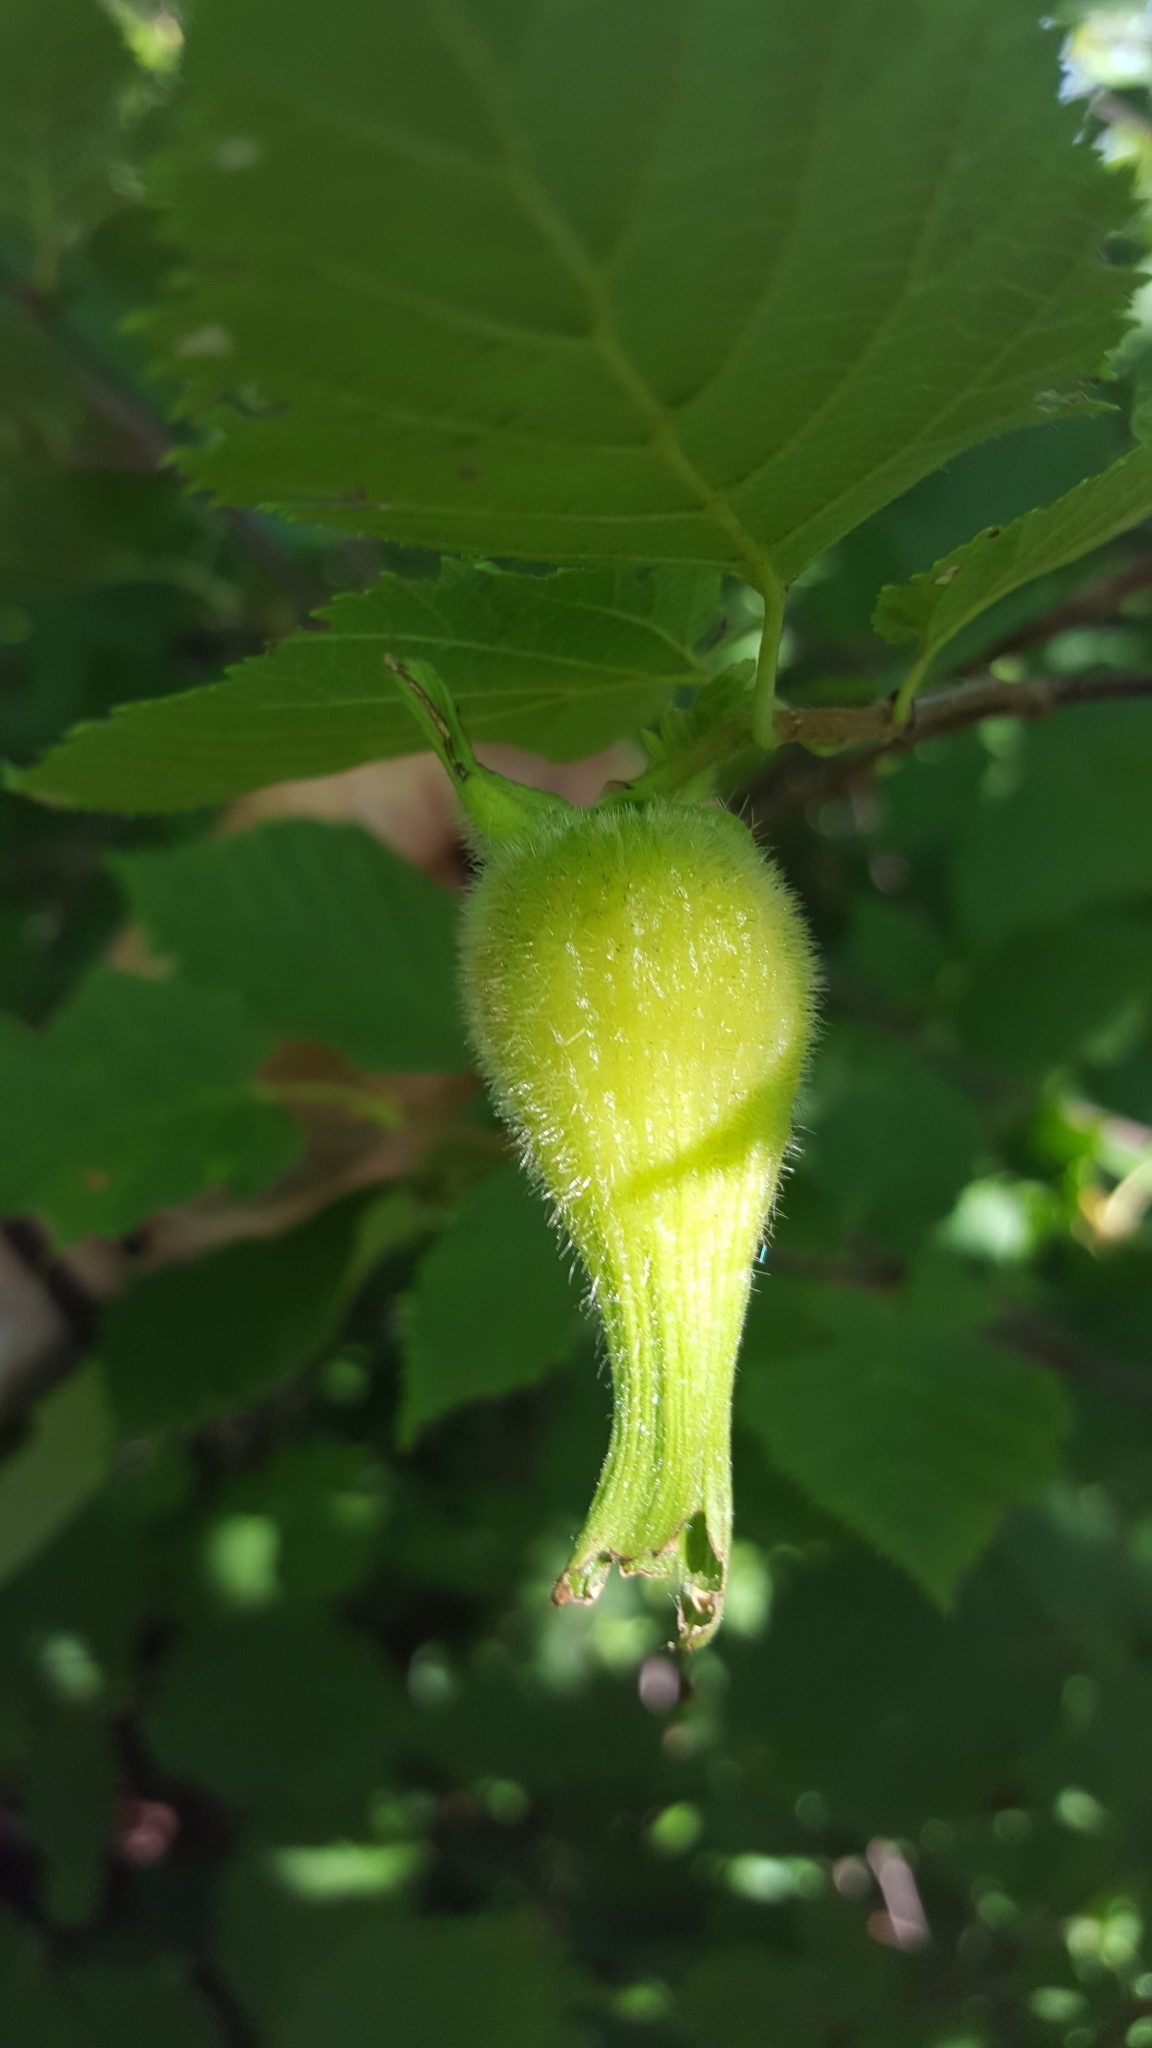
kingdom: Plantae
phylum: Tracheophyta
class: Magnoliopsida
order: Fagales
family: Betulaceae
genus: Corylus
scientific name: Corylus cornuta
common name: Beaked hazel
